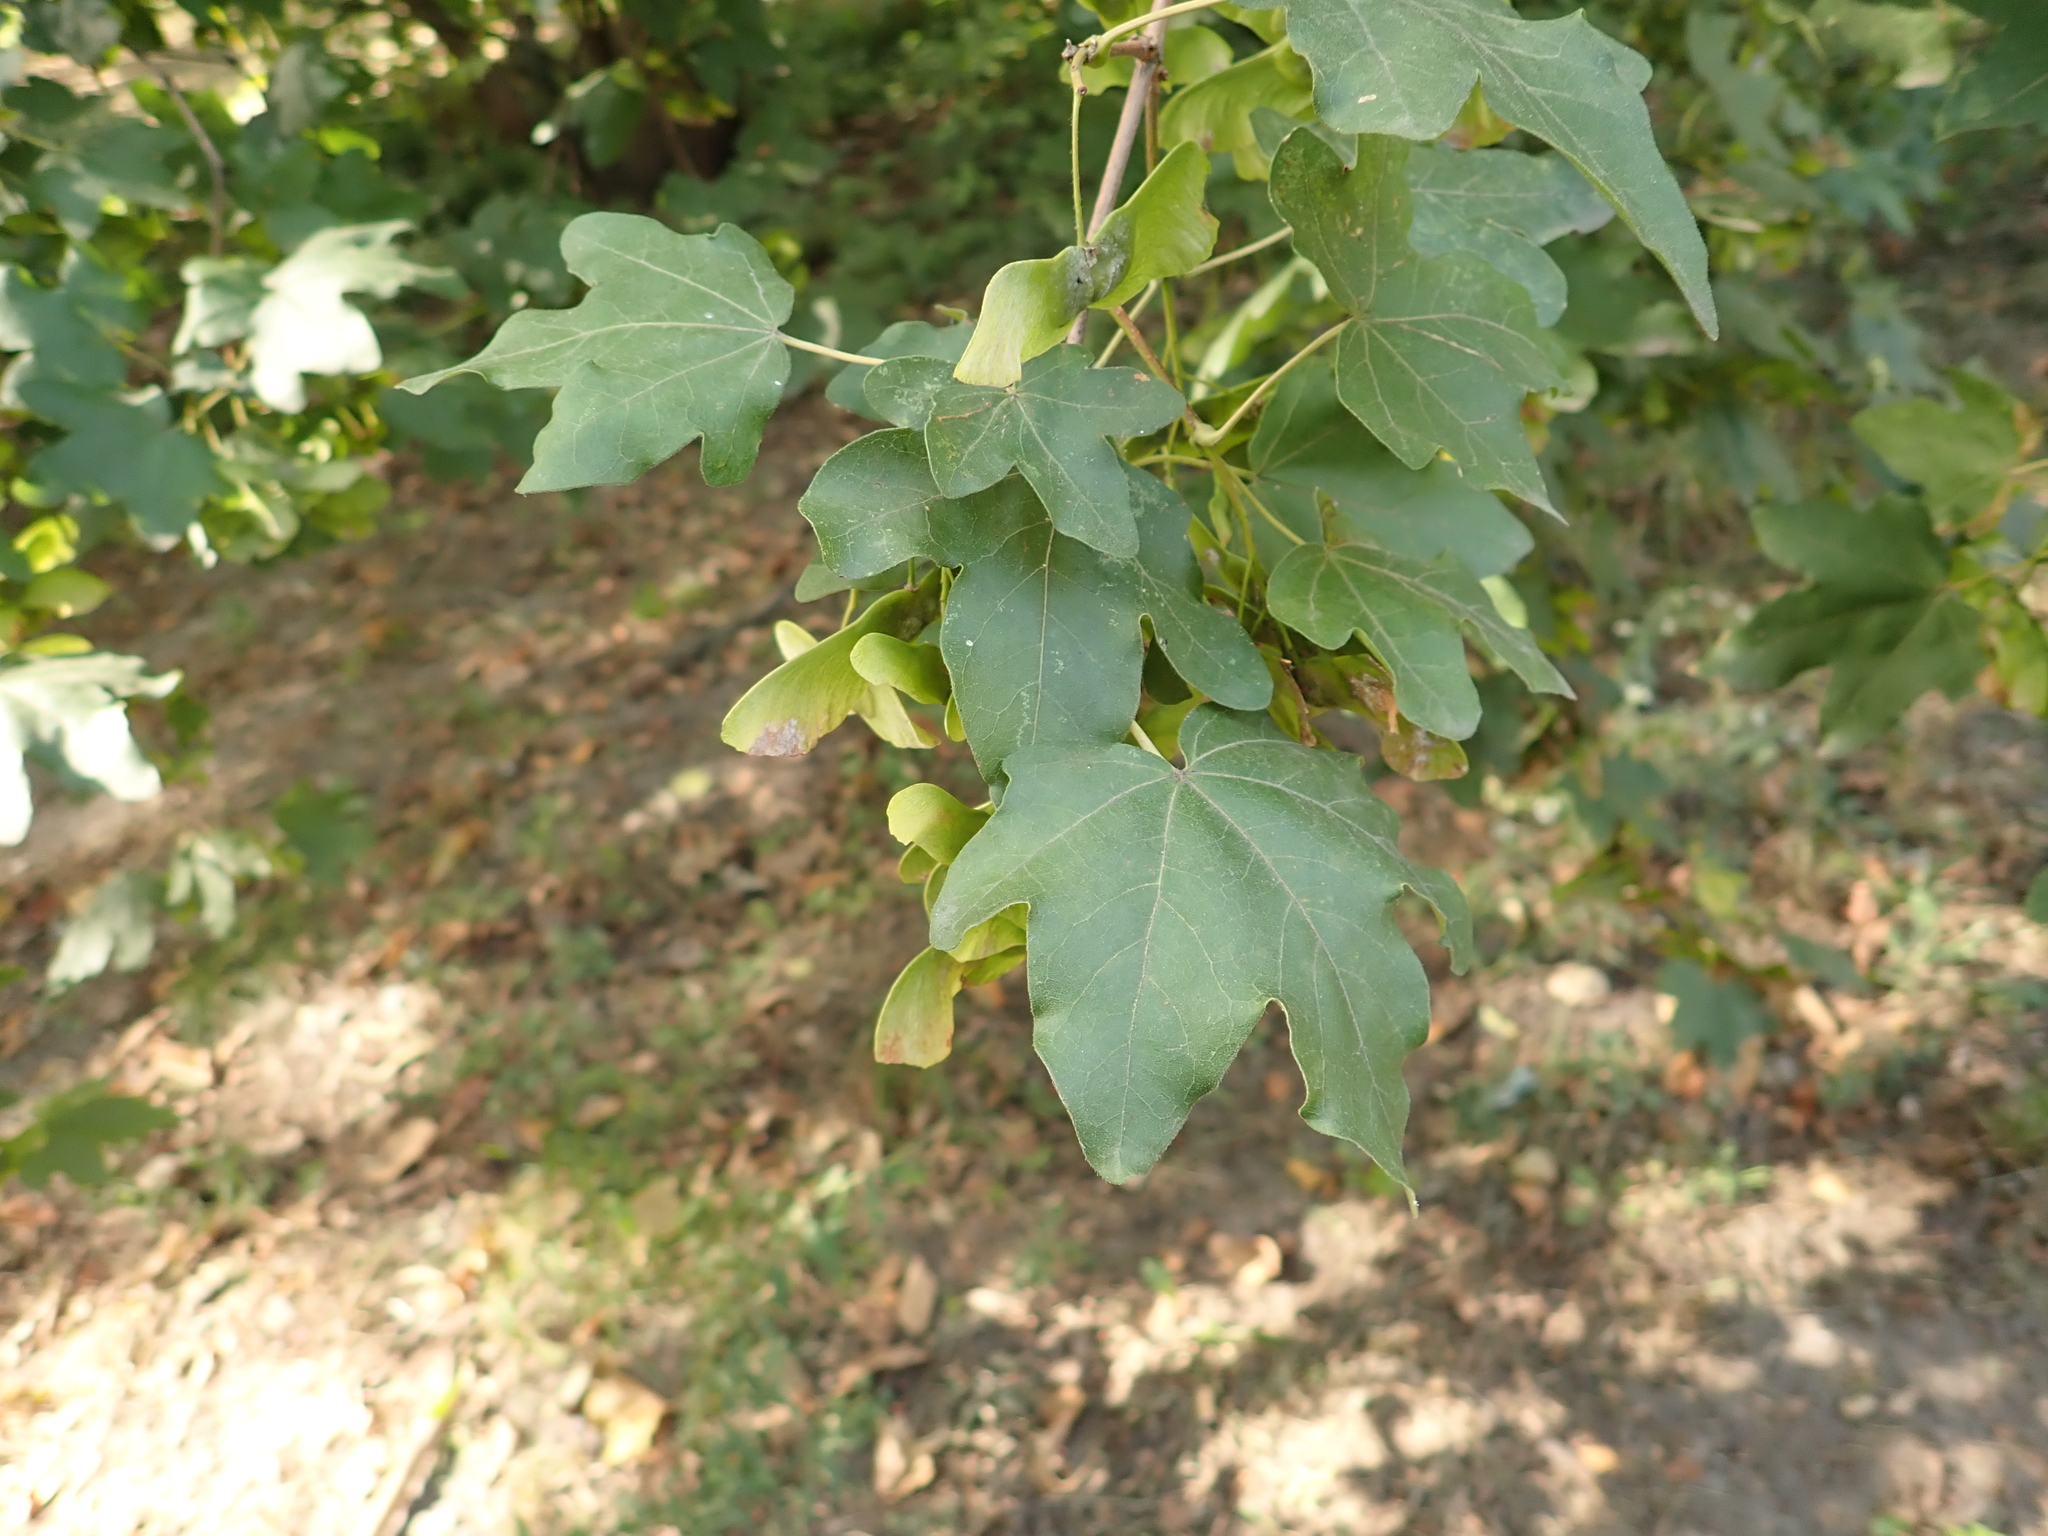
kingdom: Plantae
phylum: Tracheophyta
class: Magnoliopsida
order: Sapindales
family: Sapindaceae
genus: Acer
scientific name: Acer campestre
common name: Field maple
